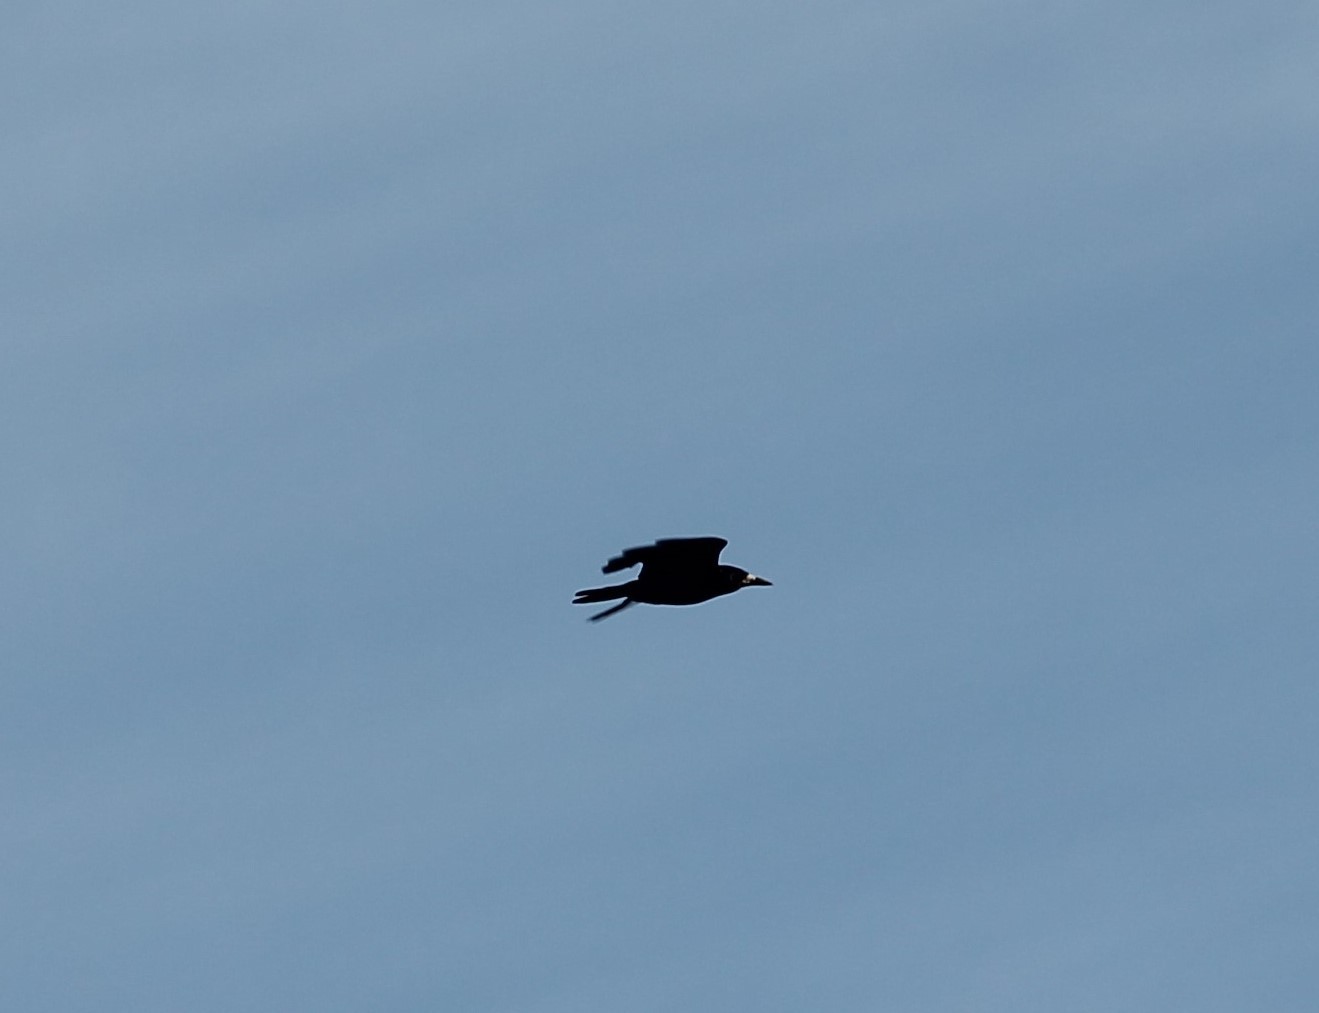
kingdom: Animalia
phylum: Chordata
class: Aves
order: Passeriformes
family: Corvidae
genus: Corvus
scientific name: Corvus frugilegus
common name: Rook
